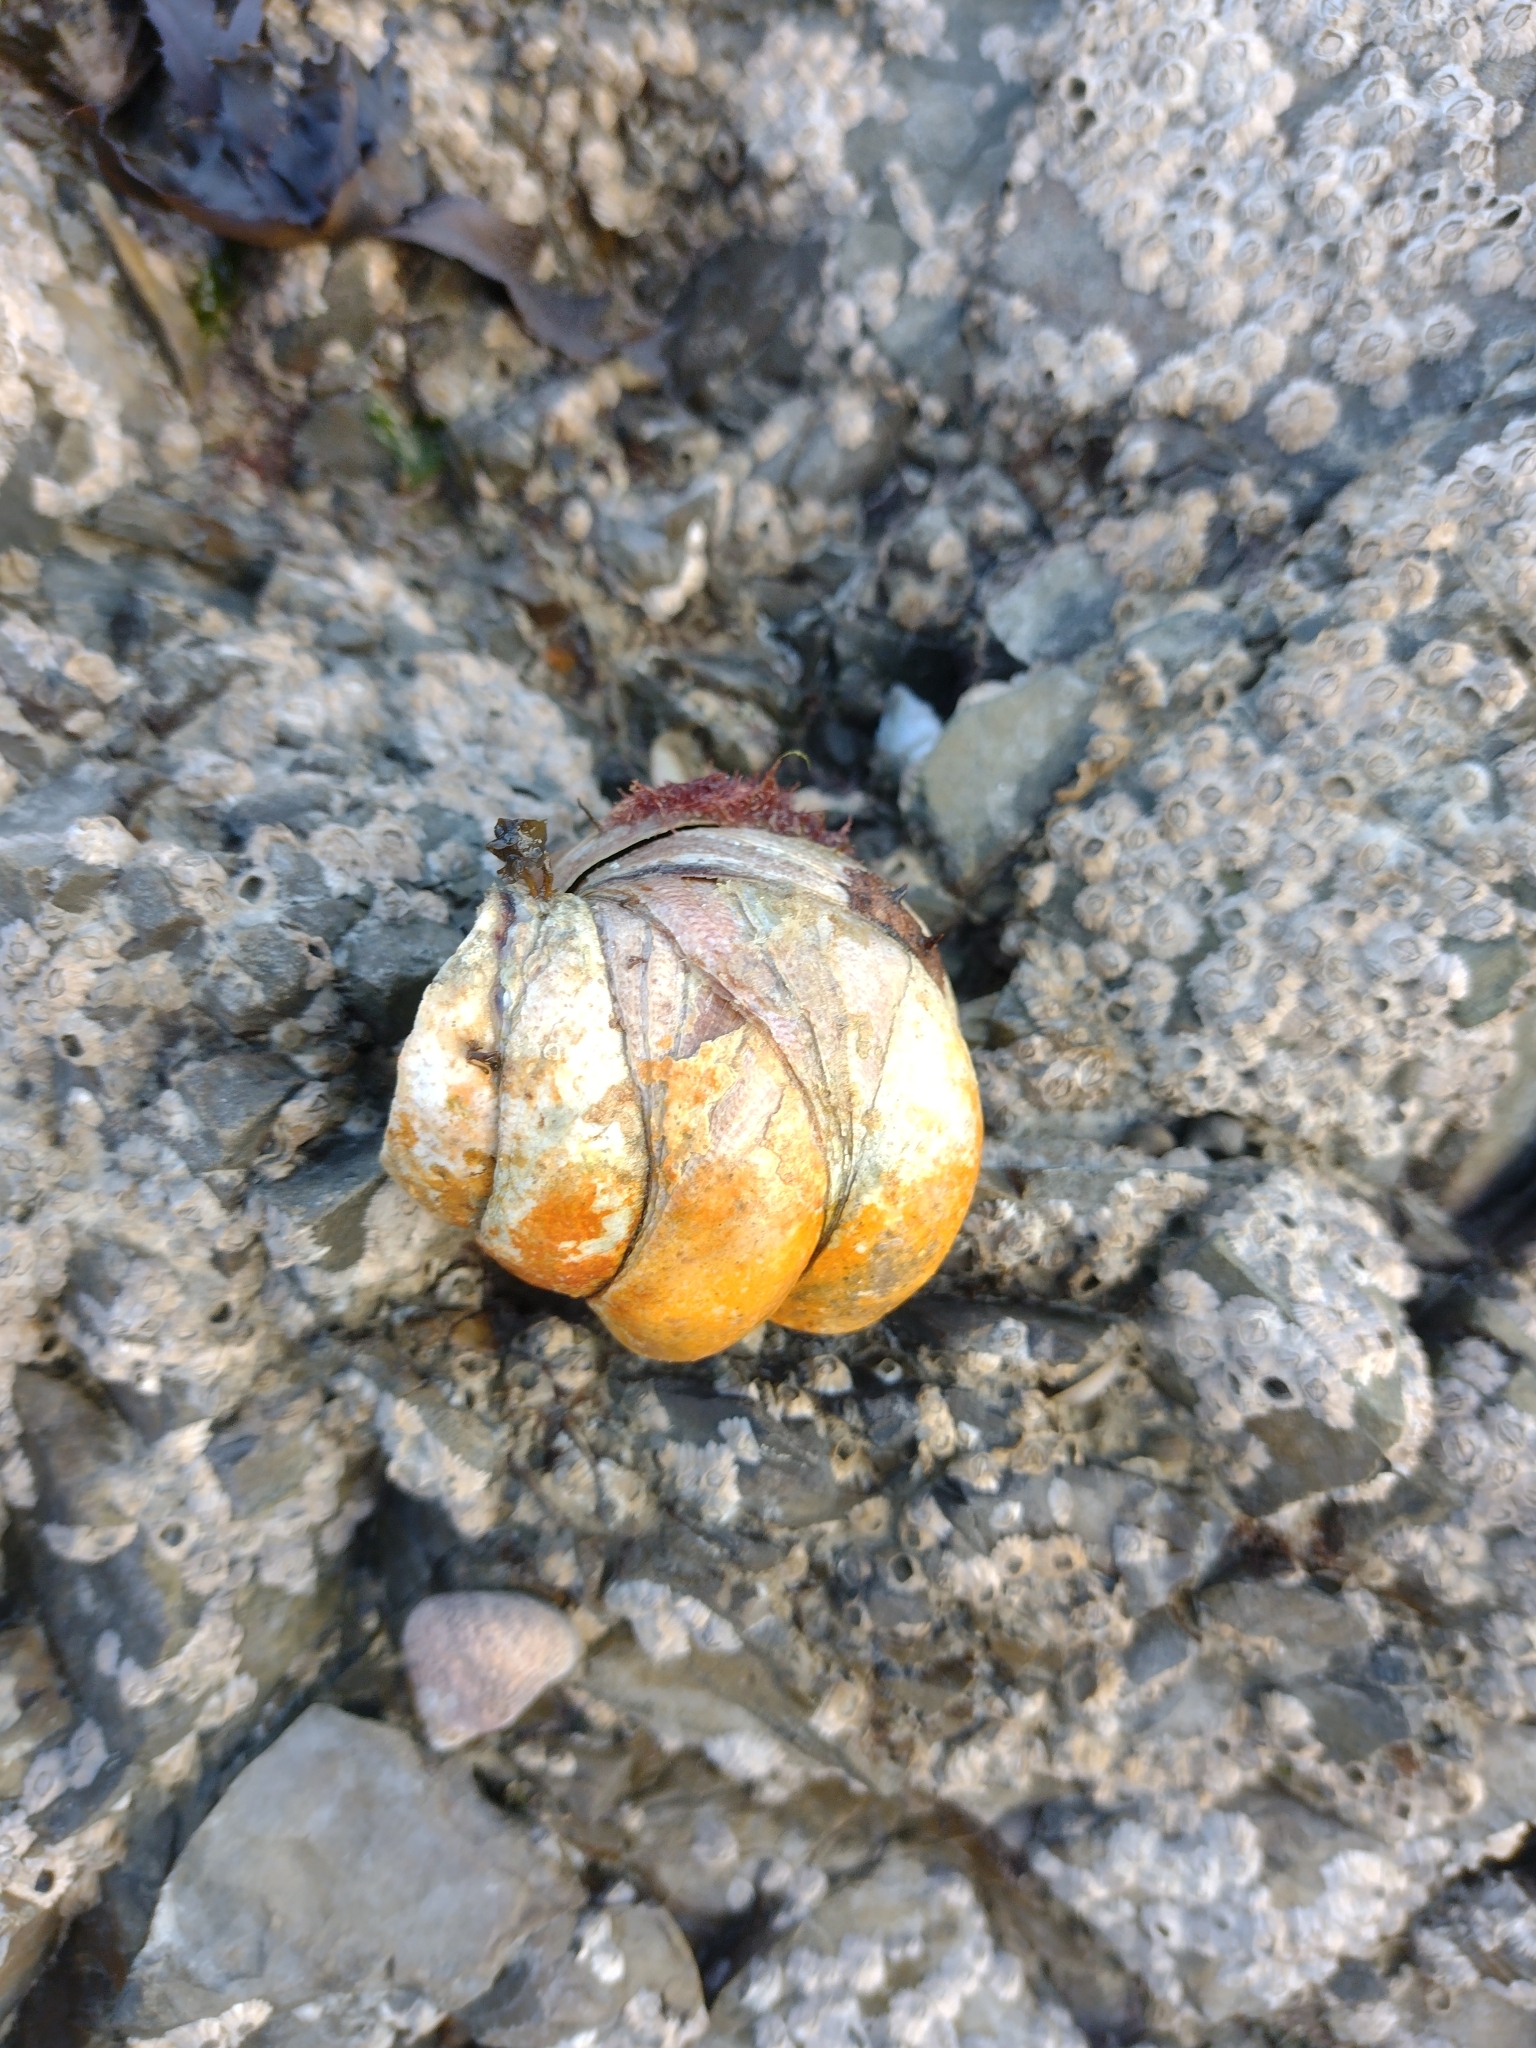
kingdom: Animalia
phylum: Mollusca
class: Gastropoda
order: Littorinimorpha
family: Calyptraeidae
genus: Crepidula
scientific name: Crepidula fornicata
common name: Slipper limpet
